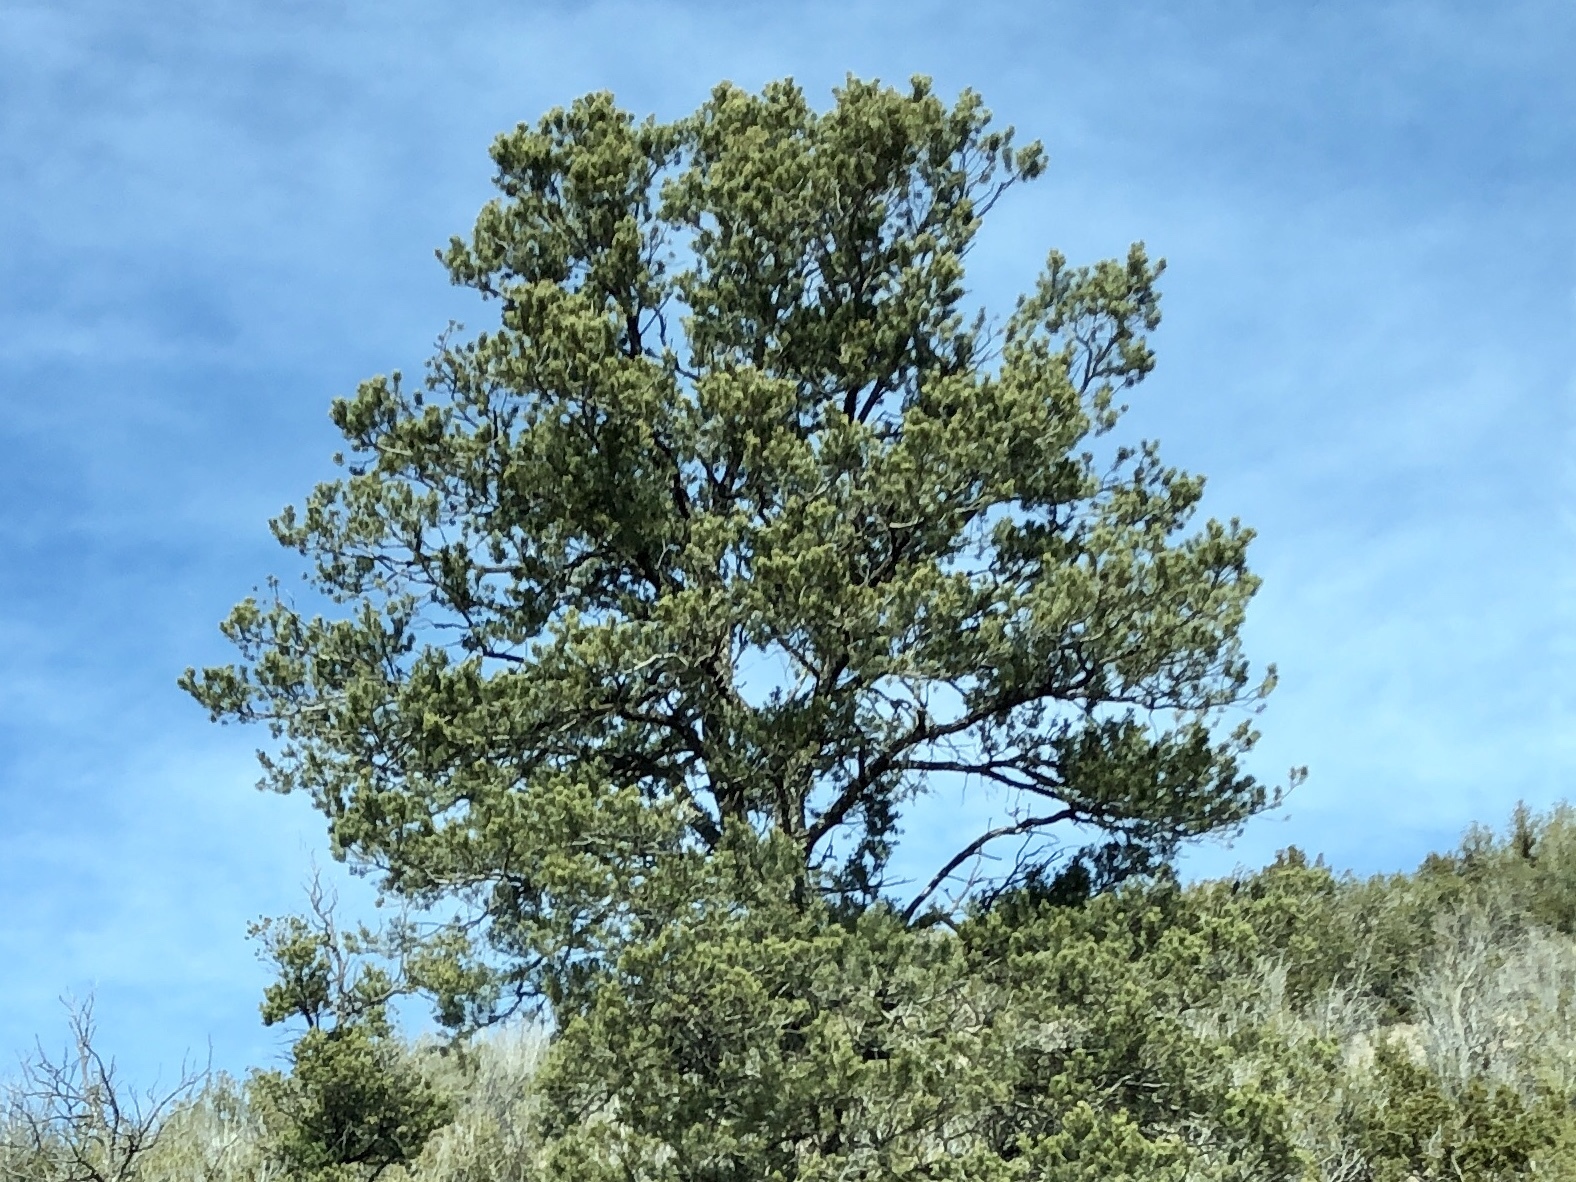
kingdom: Plantae
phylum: Tracheophyta
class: Pinopsida
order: Pinales
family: Pinaceae
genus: Pinus
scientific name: Pinus edulis
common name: Colorado pinyon
